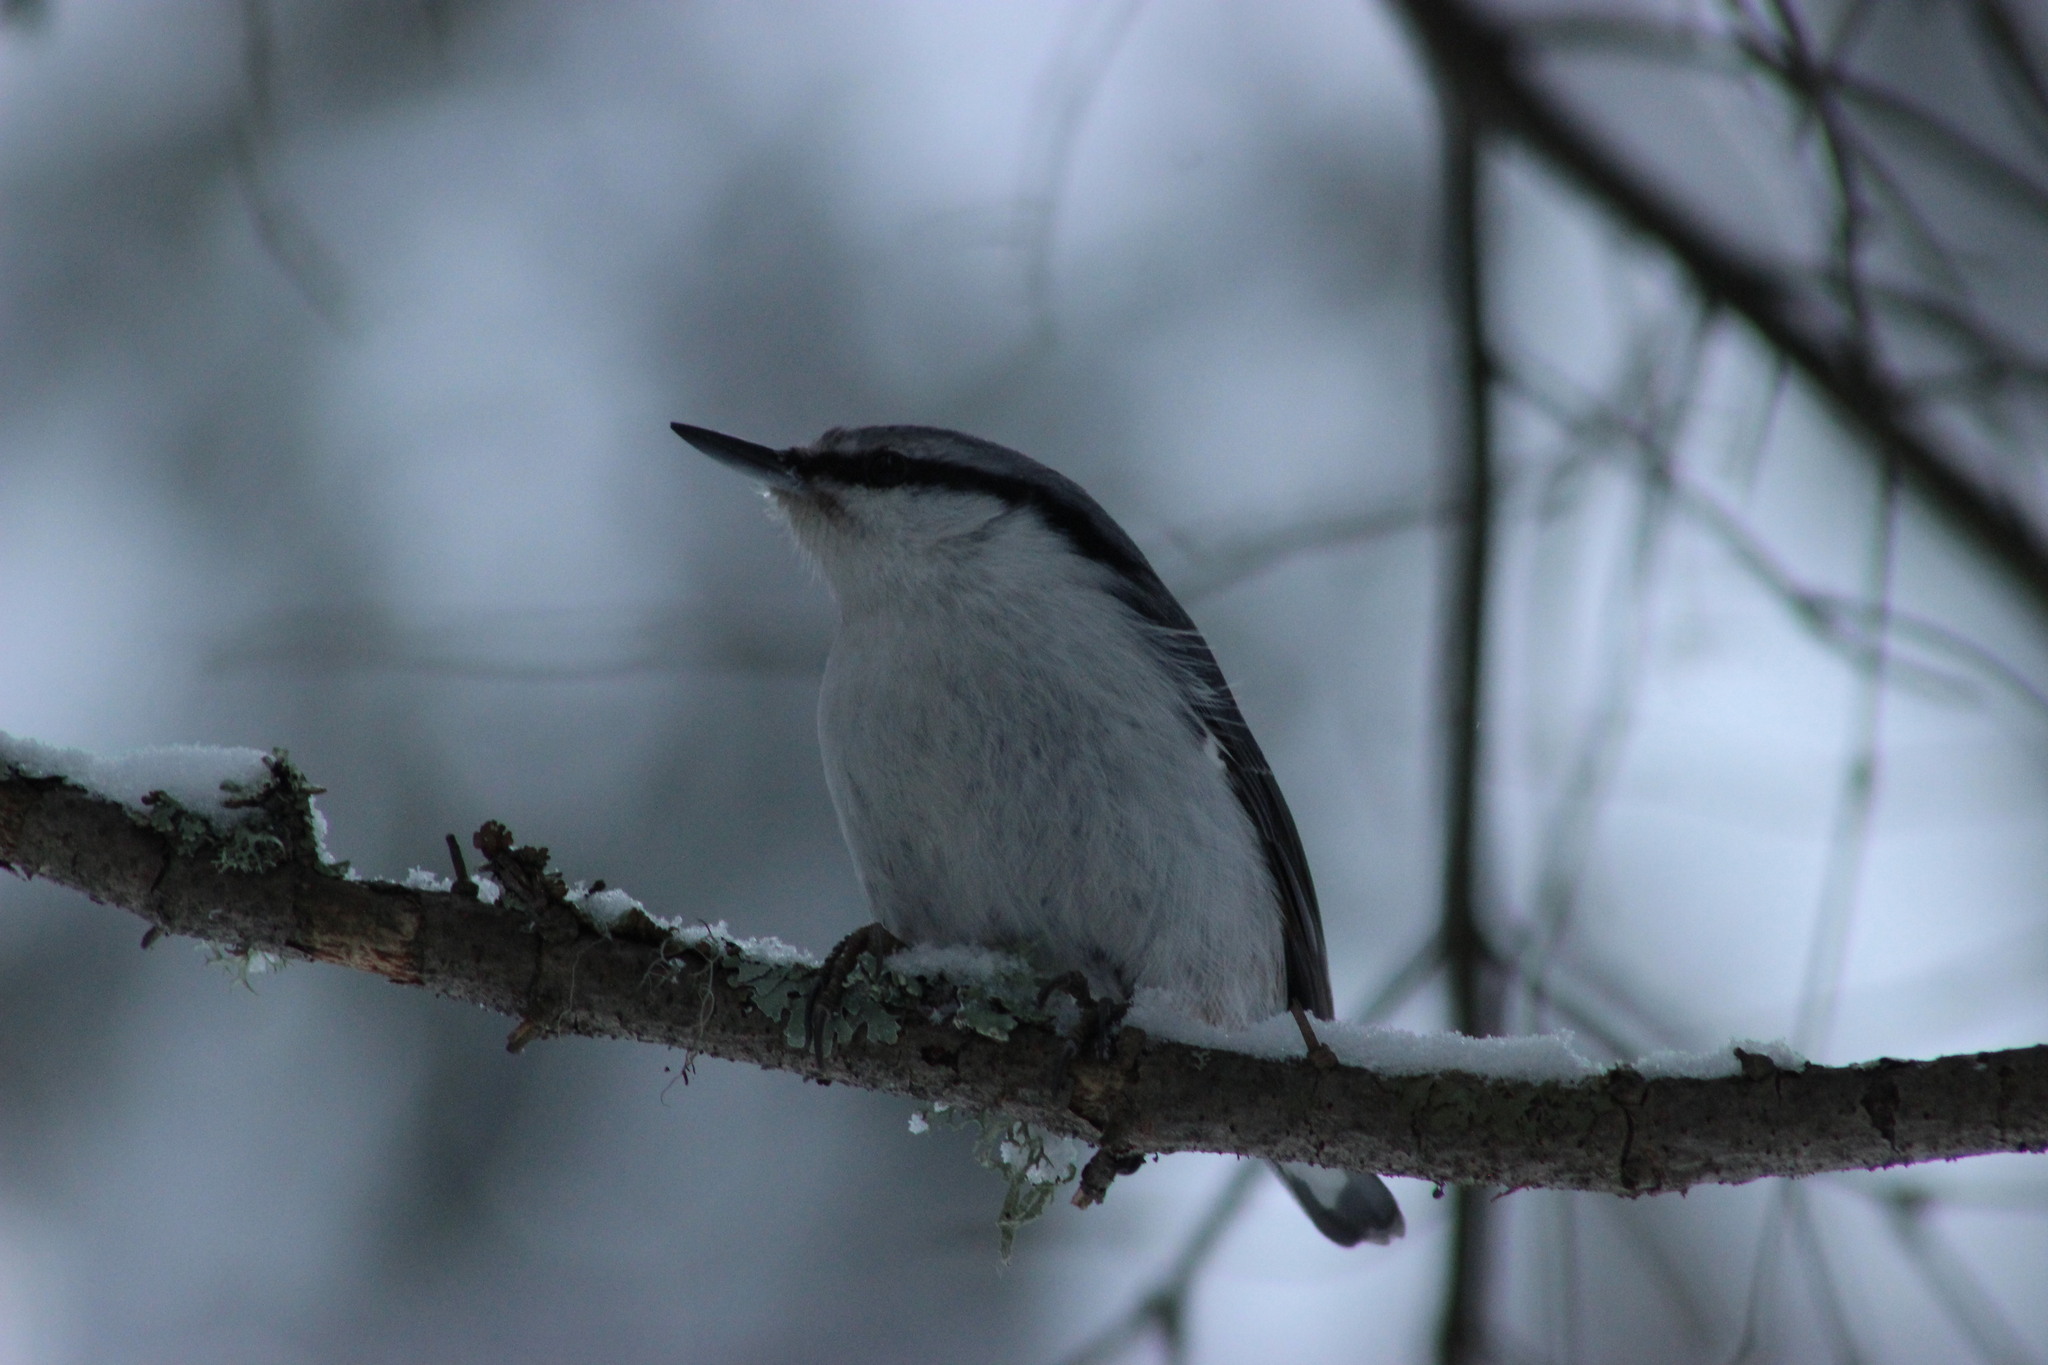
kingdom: Animalia
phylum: Chordata
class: Aves
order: Passeriformes
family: Sittidae
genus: Sitta
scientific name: Sitta europaea
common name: Eurasian nuthatch
